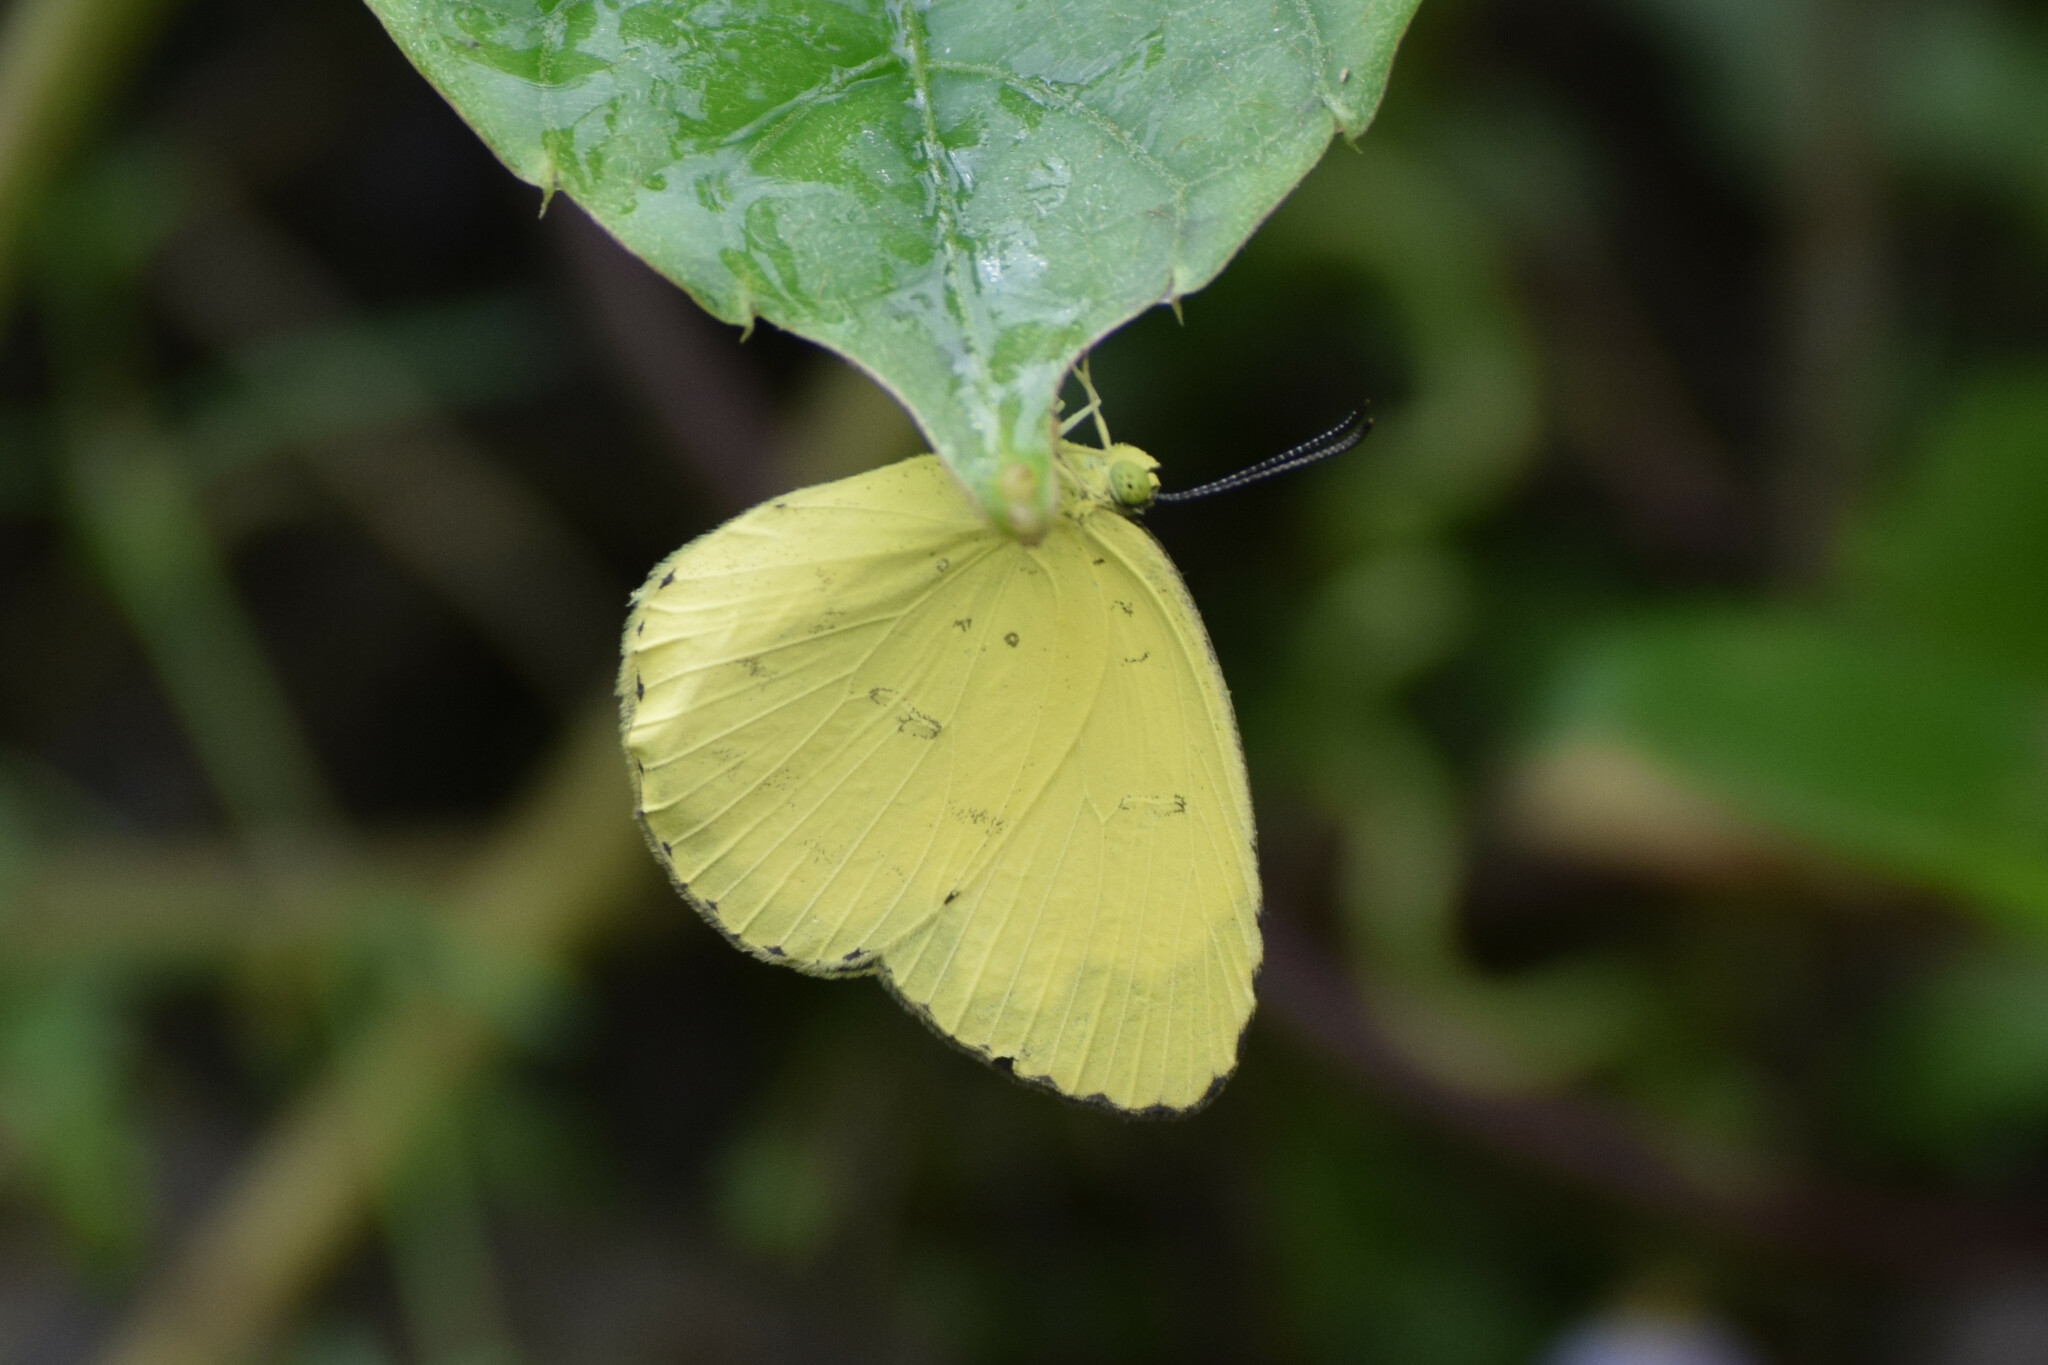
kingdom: Animalia
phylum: Arthropoda
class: Insecta
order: Lepidoptera
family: Pieridae
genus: Eurema
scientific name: Eurema blanda
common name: Three-spot grass yellow
